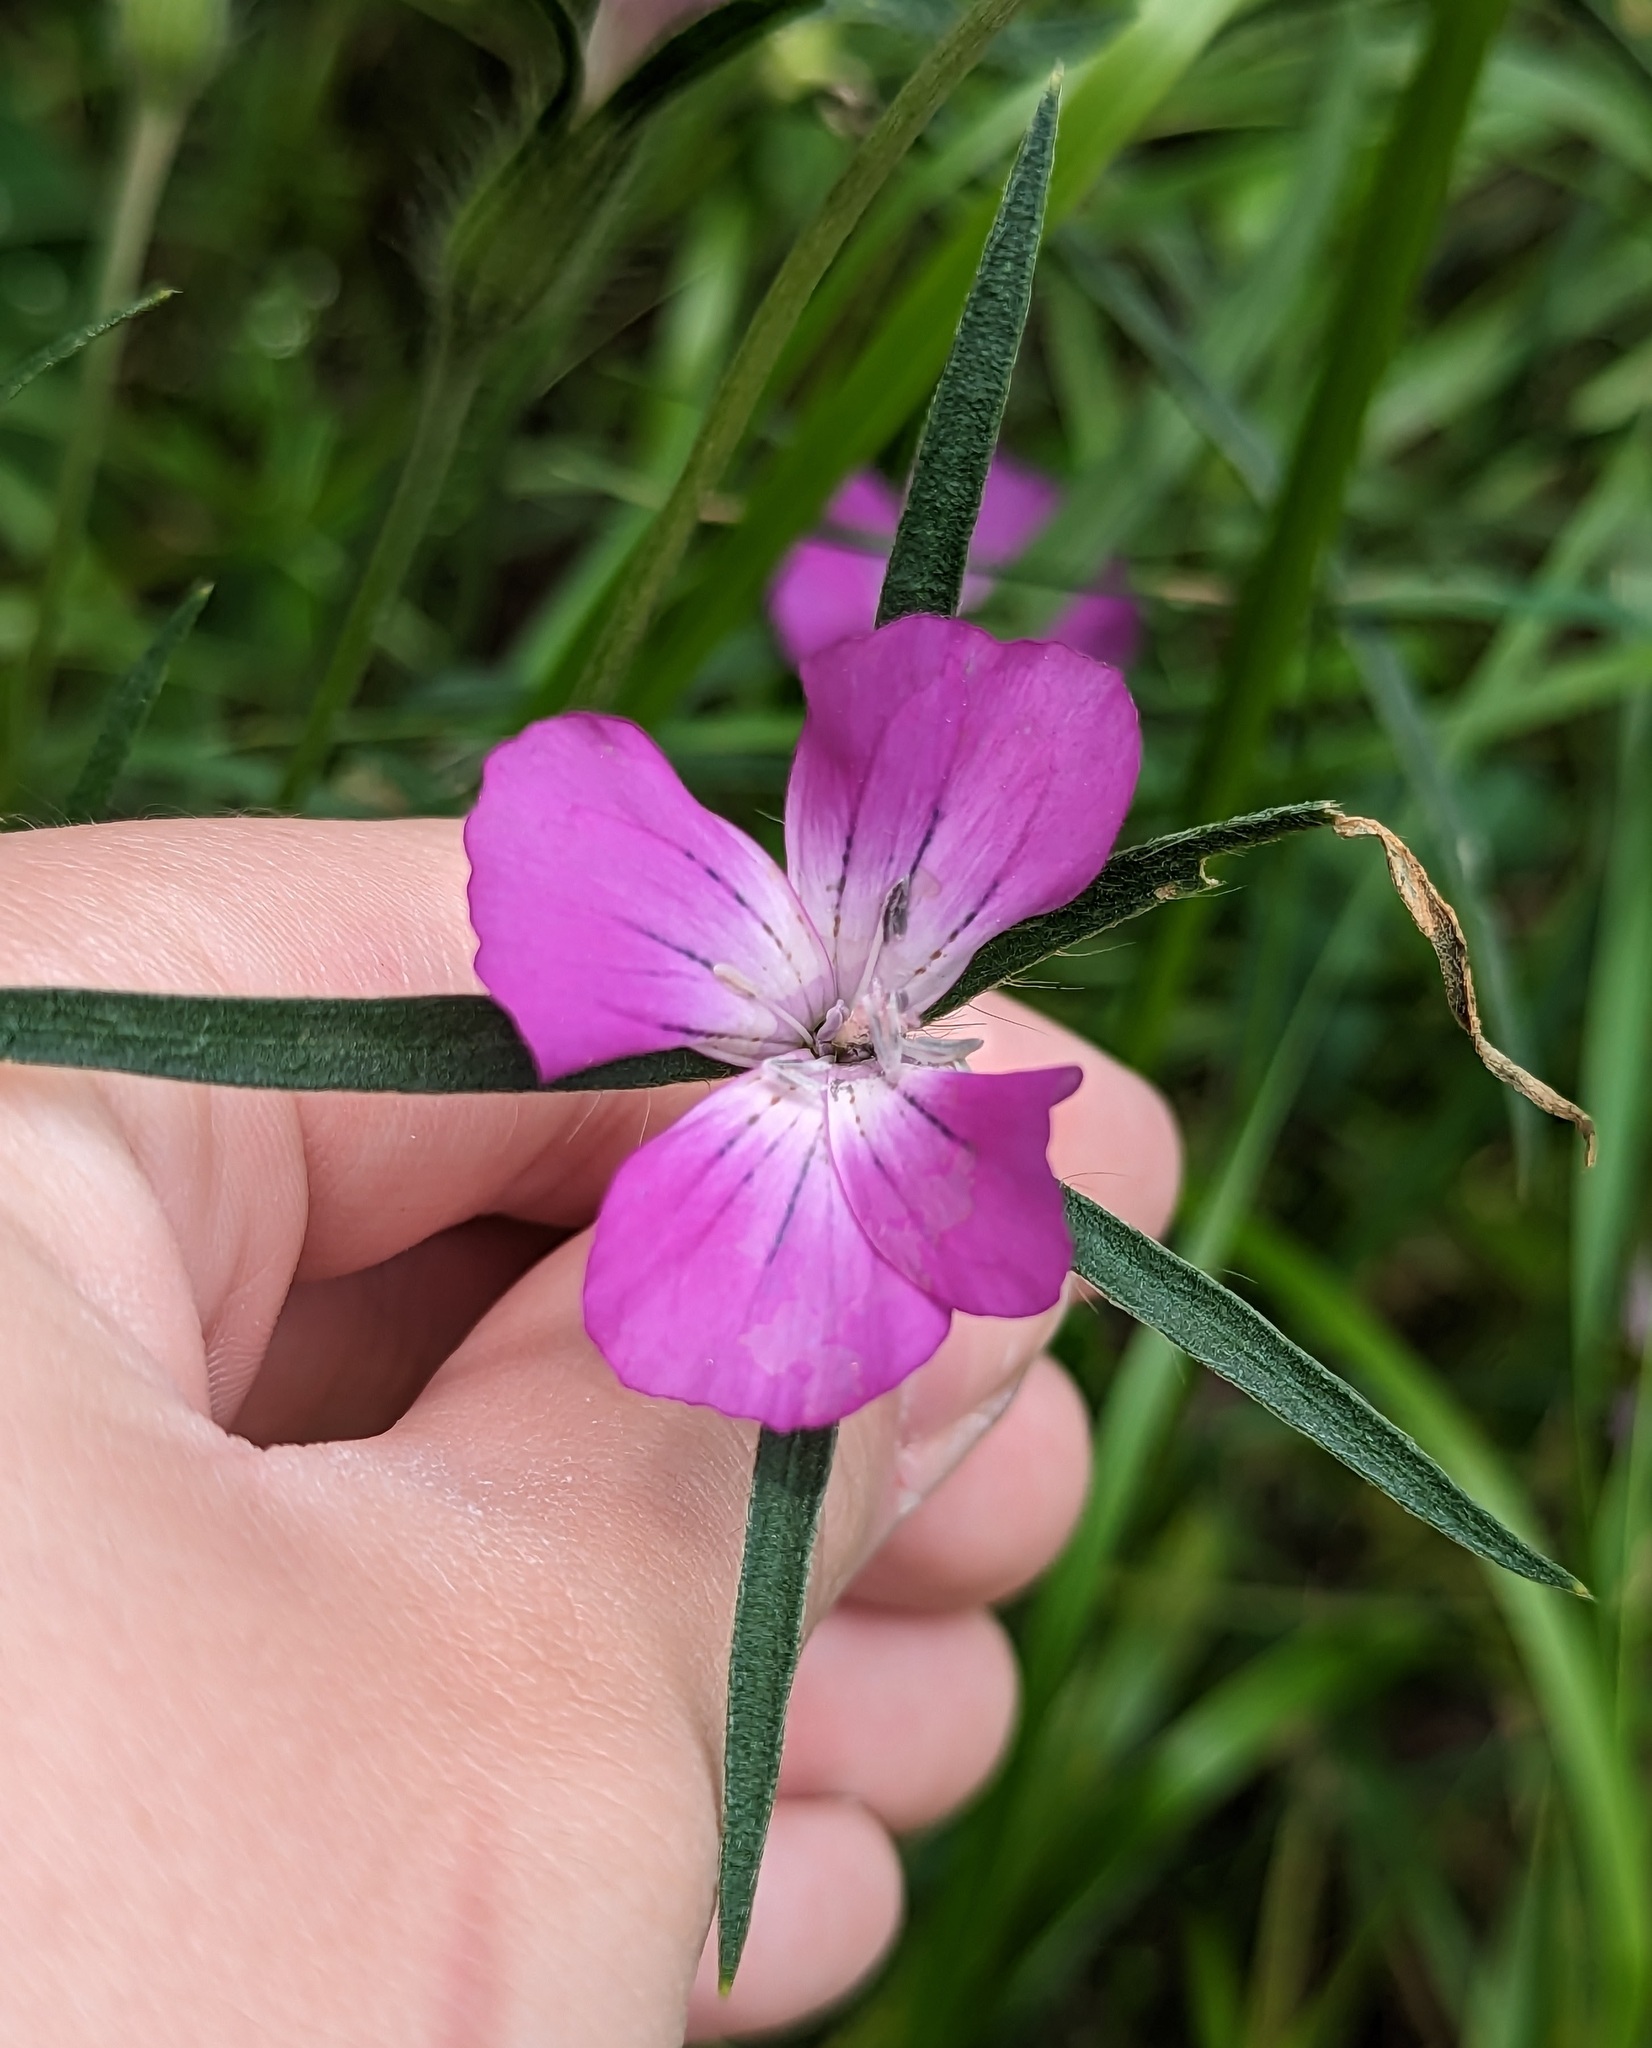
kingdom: Plantae
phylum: Tracheophyta
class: Magnoliopsida
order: Caryophyllales
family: Caryophyllaceae
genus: Agrostemma
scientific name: Agrostemma githago
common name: Common corncockle
